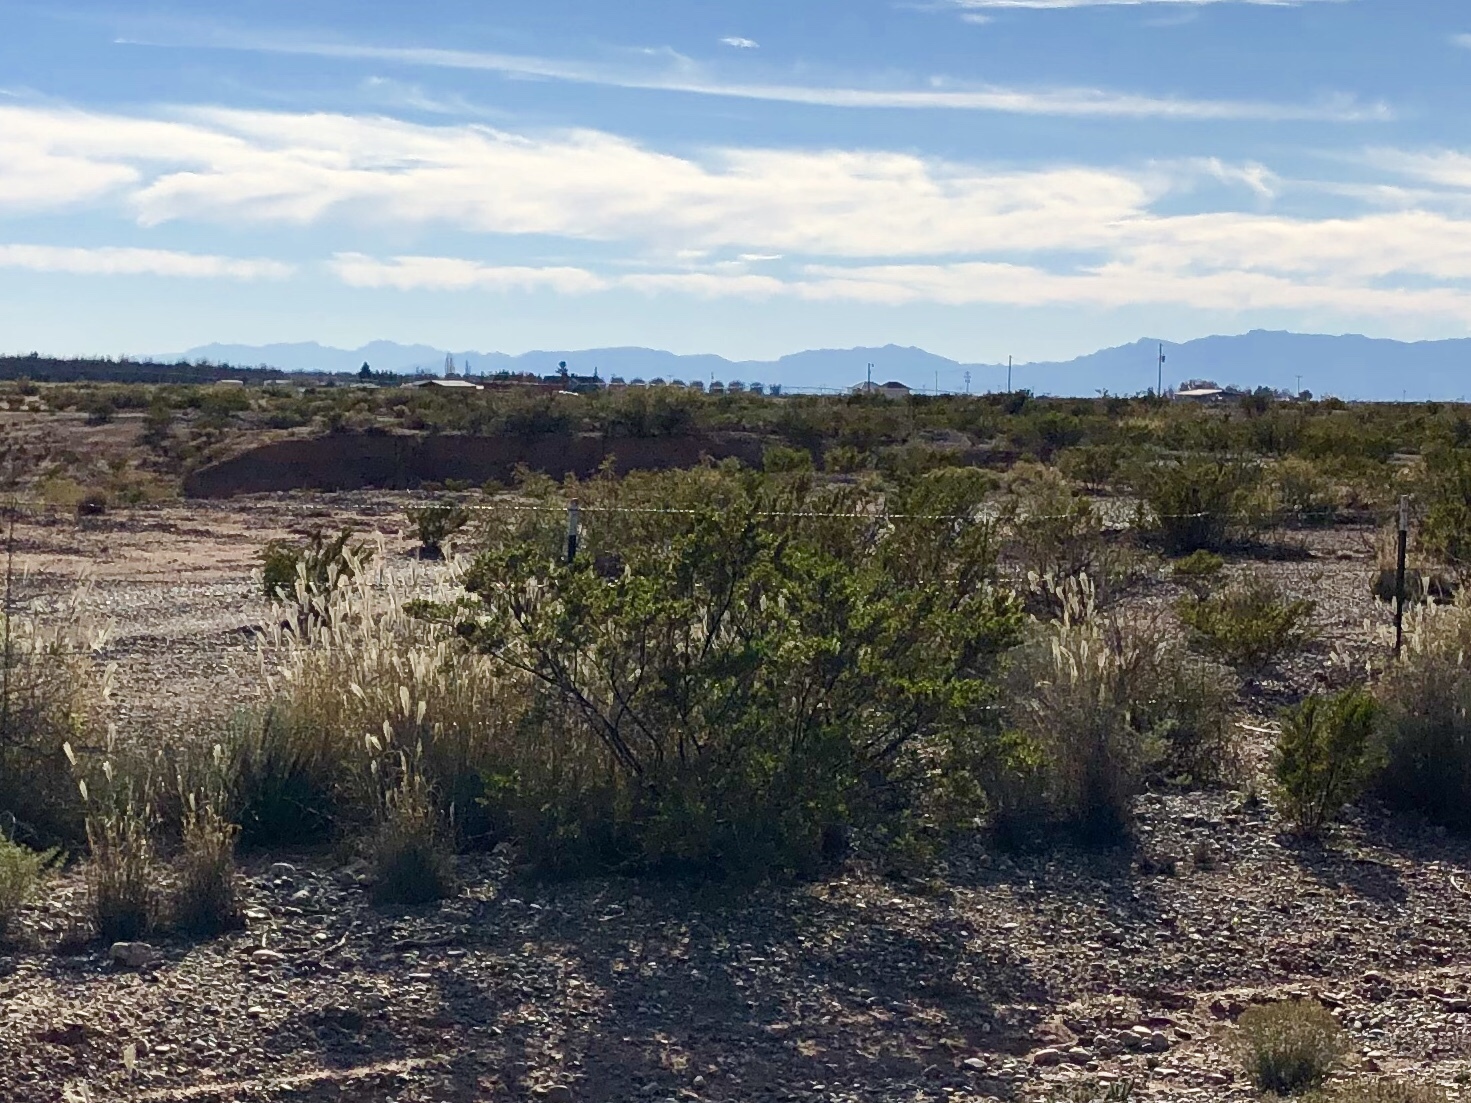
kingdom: Plantae
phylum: Tracheophyta
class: Magnoliopsida
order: Zygophyllales
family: Zygophyllaceae
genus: Larrea
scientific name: Larrea tridentata
